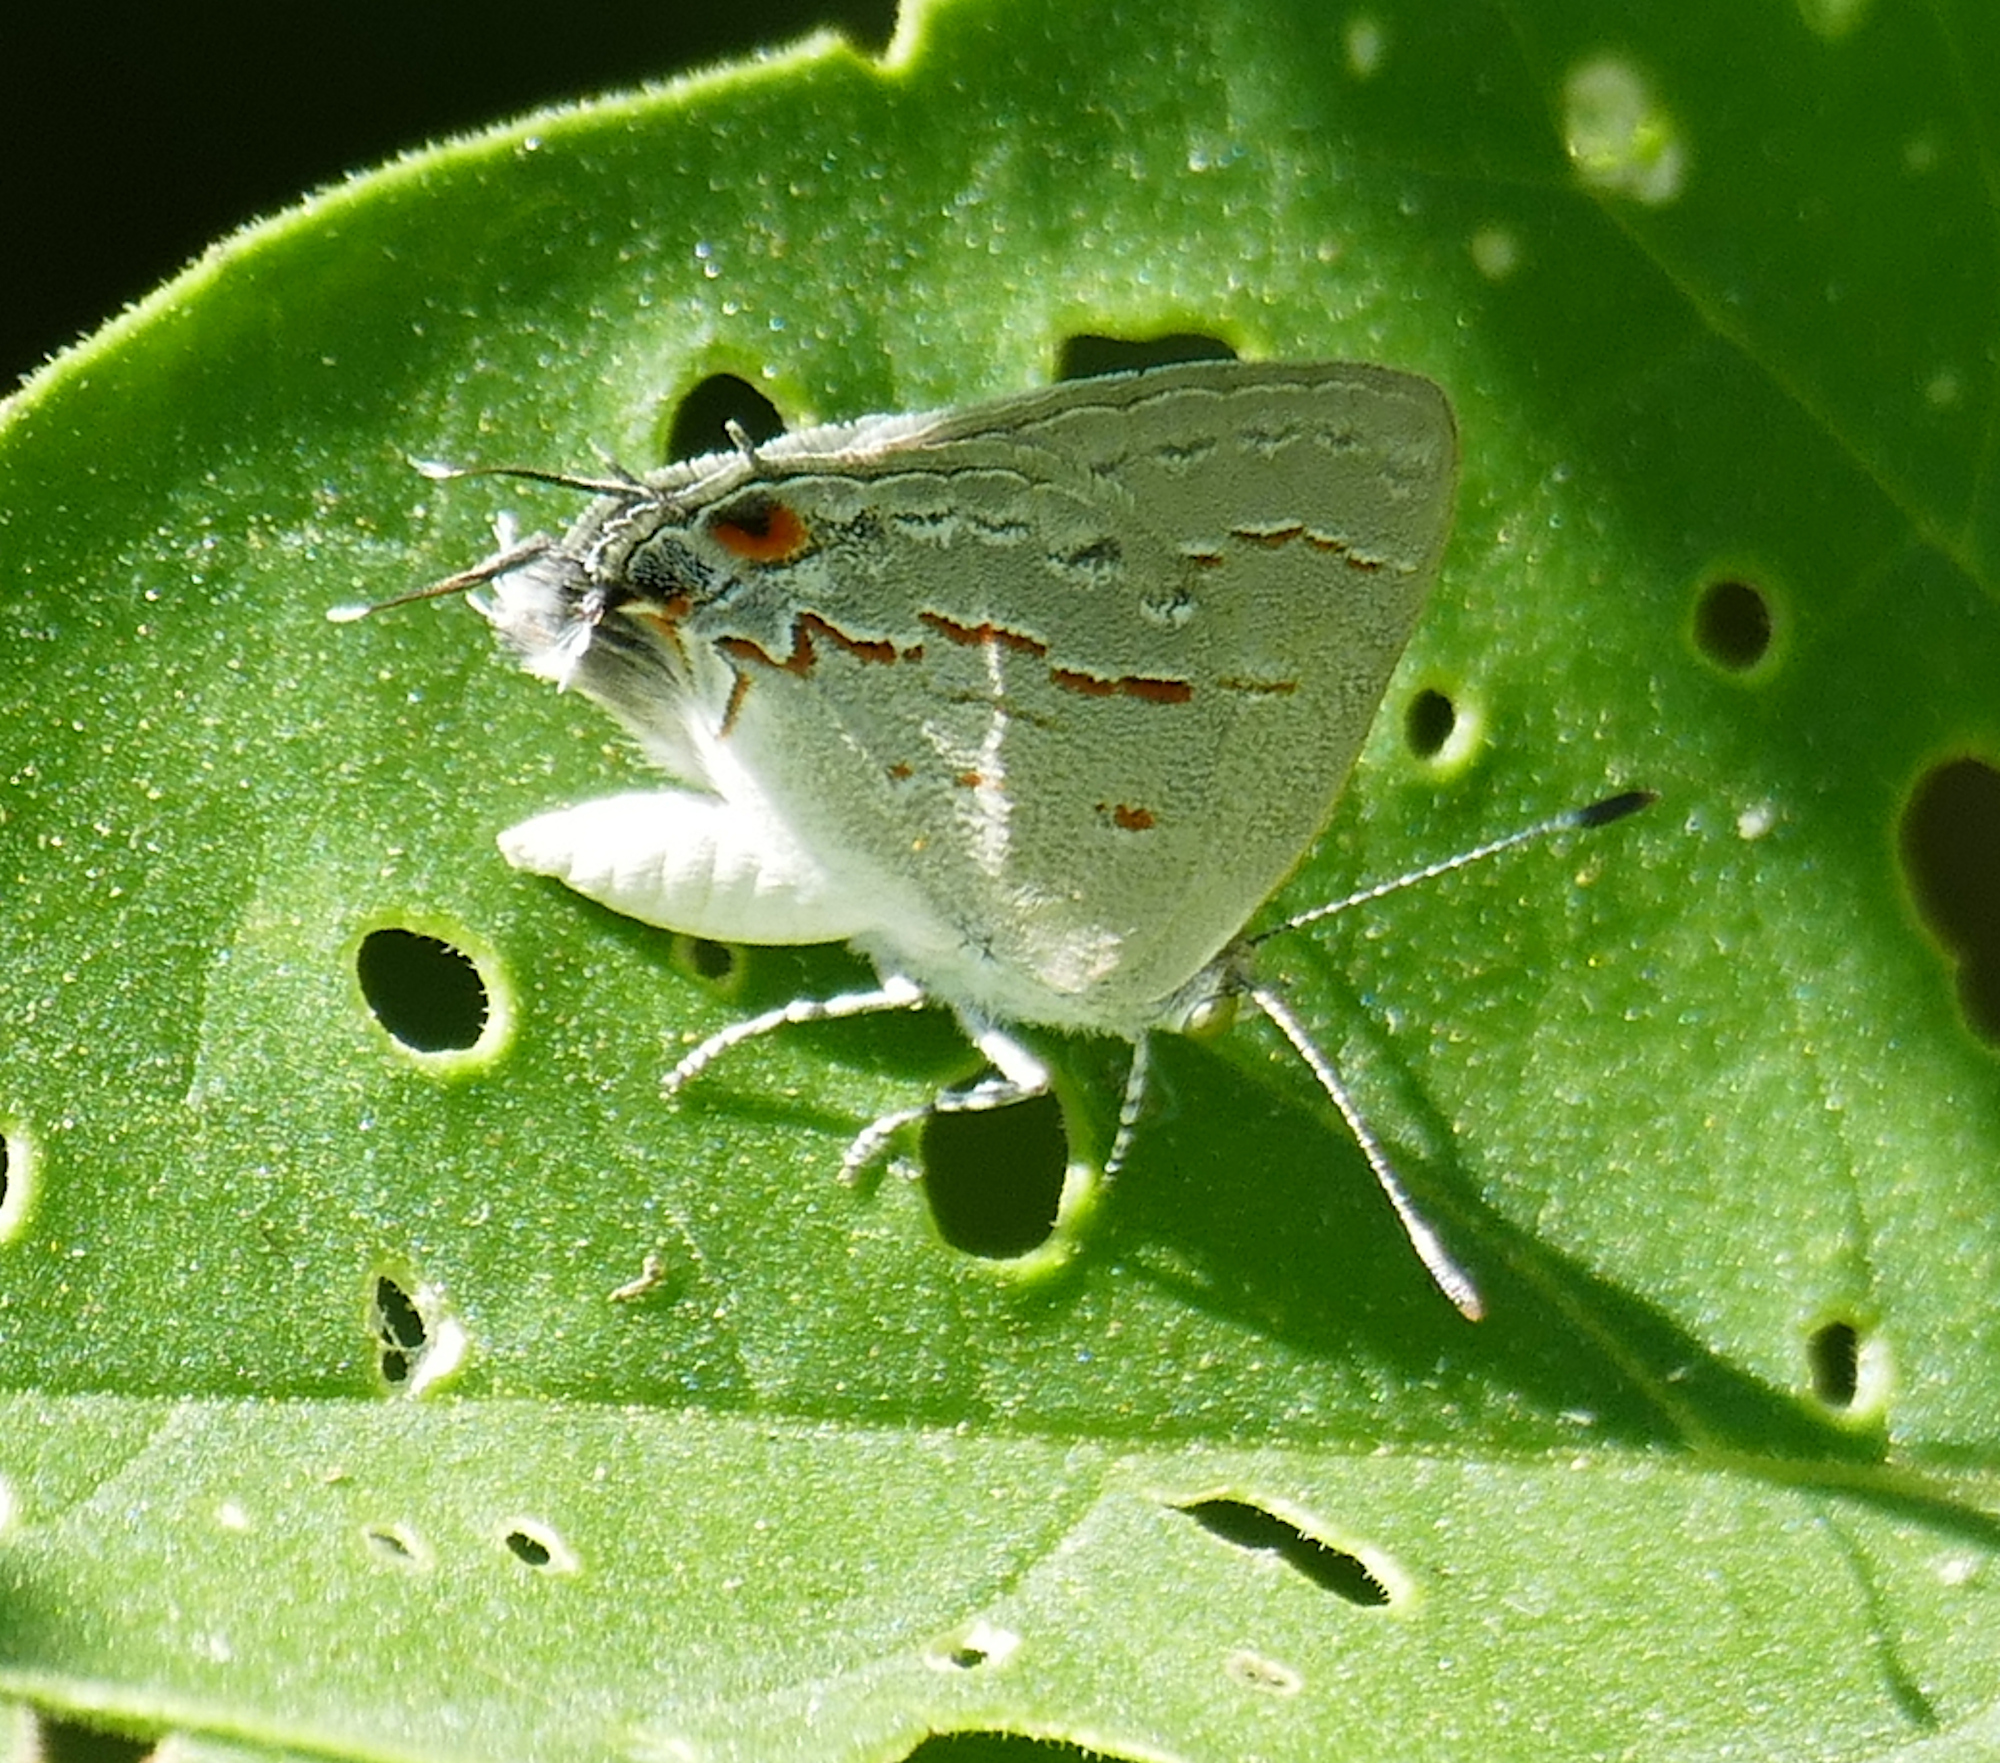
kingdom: Animalia
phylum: Arthropoda
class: Insecta
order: Lepidoptera
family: Lycaenidae
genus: Ministrymon
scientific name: Ministrymon leda
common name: Leda ministreak
